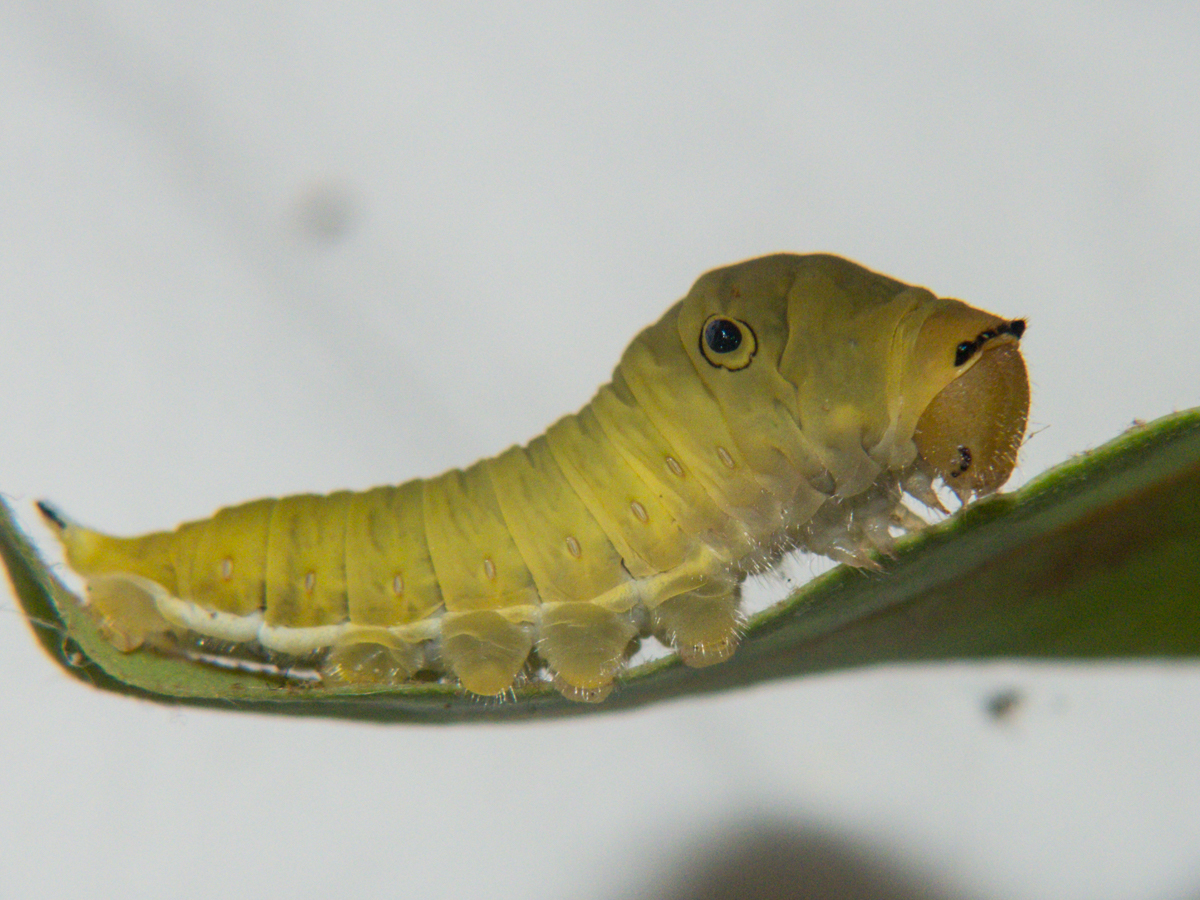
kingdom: Animalia
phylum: Arthropoda
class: Insecta
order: Lepidoptera
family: Papilionidae
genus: Graphium
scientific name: Graphium doson
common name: Common jay
